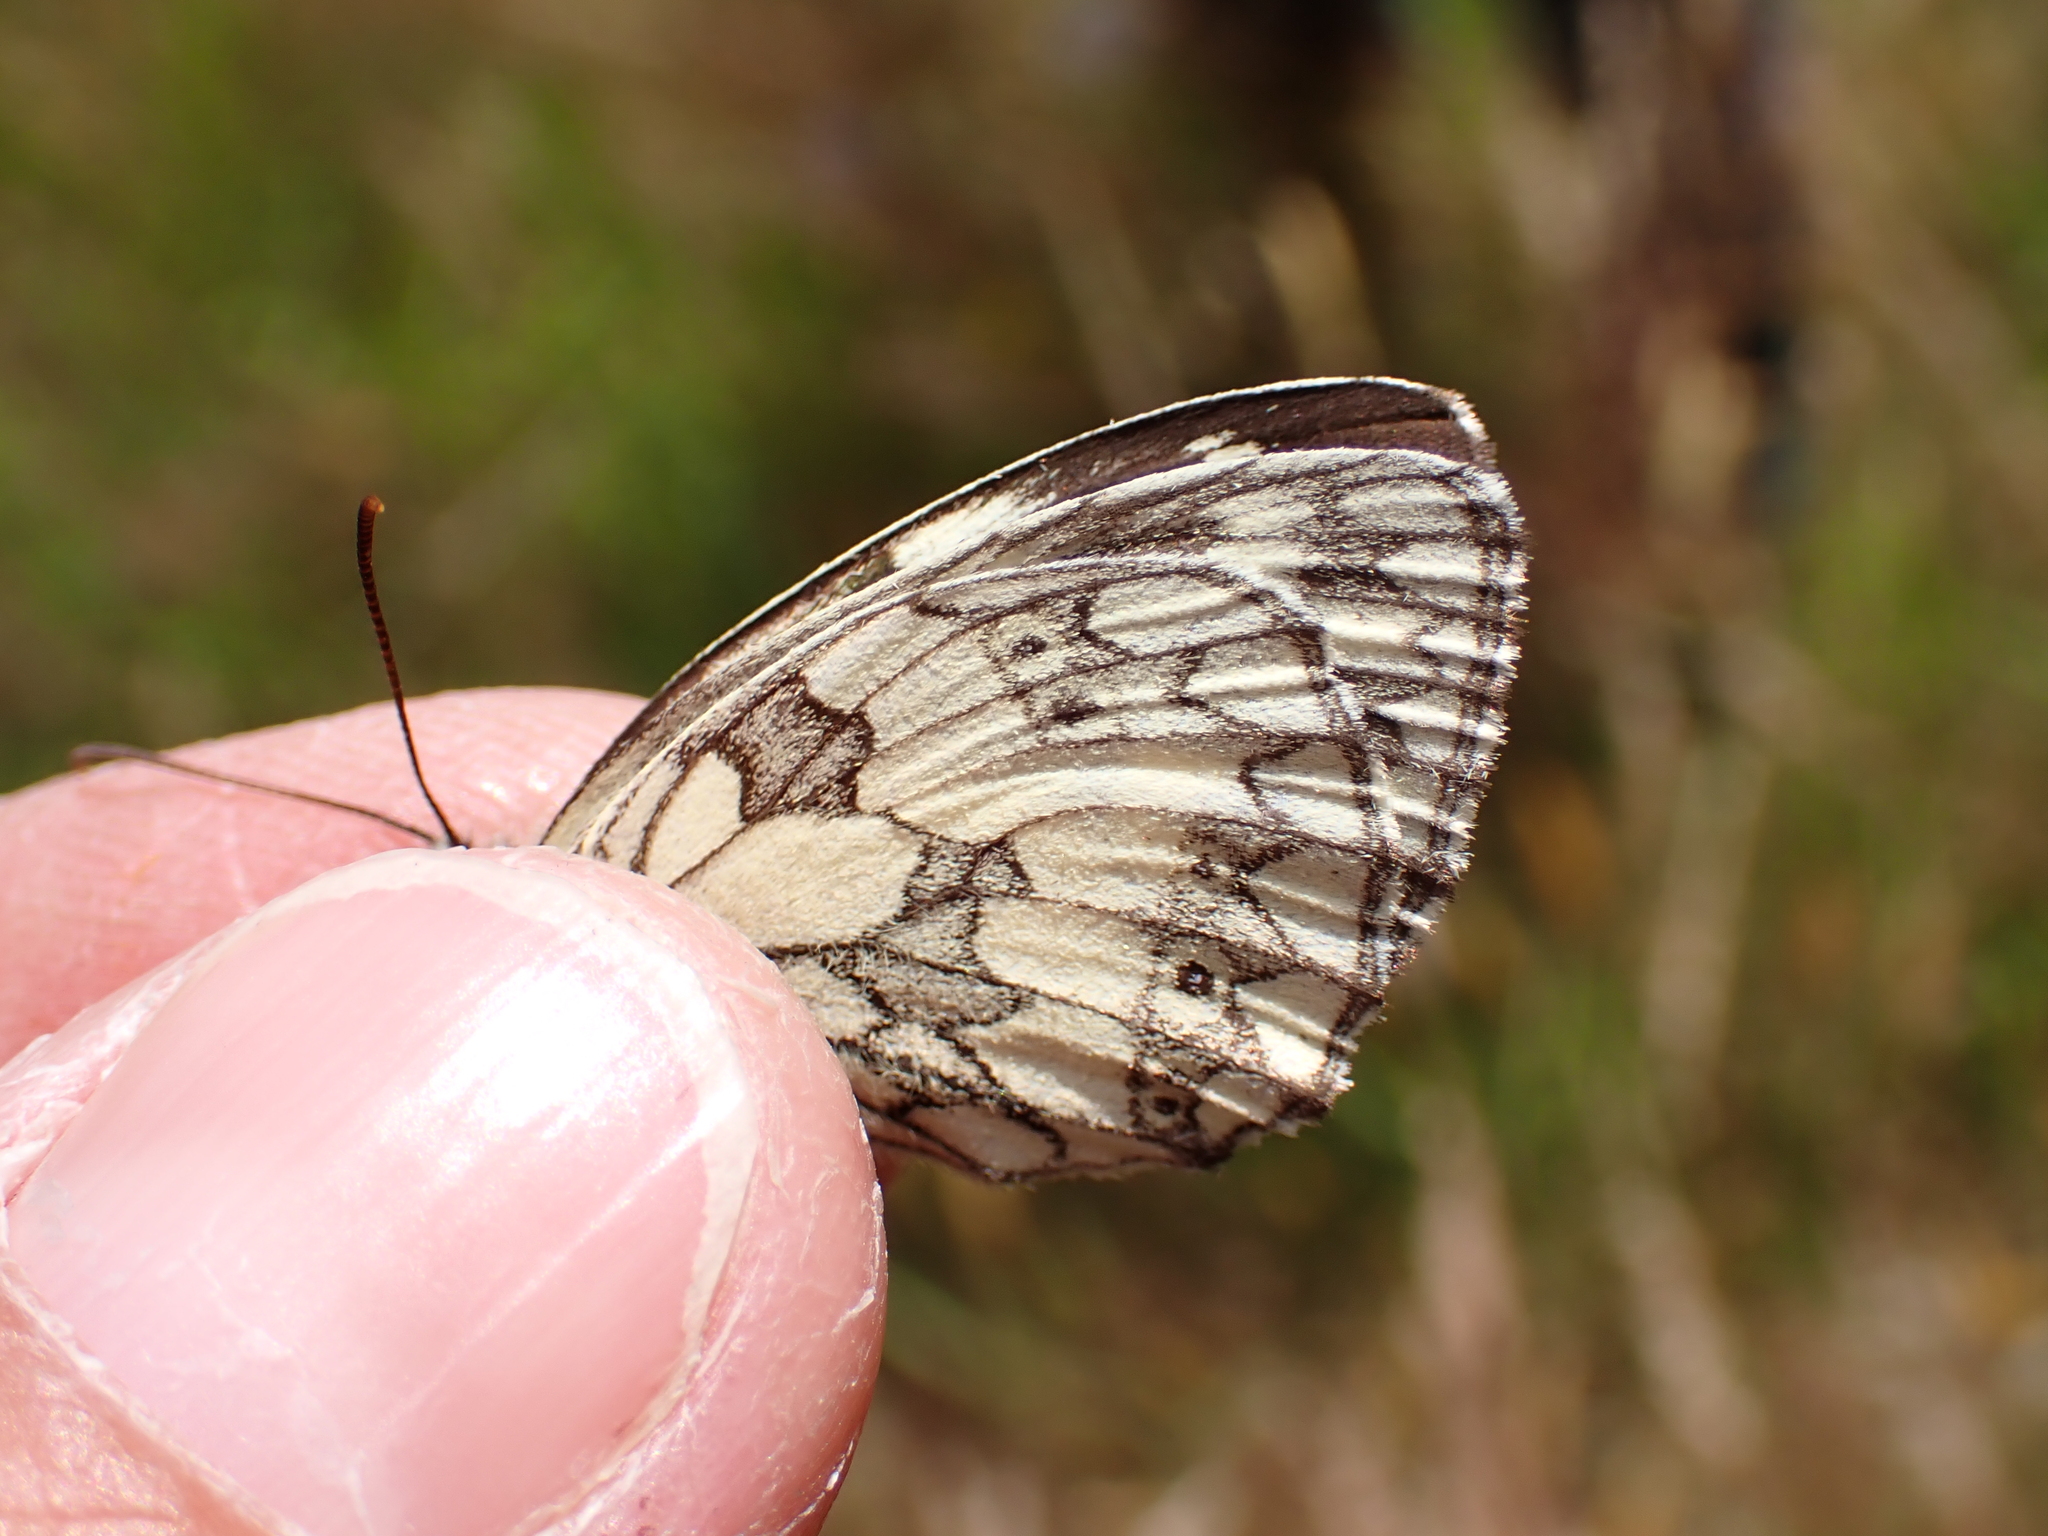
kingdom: Animalia
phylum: Arthropoda
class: Insecta
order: Lepidoptera
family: Nymphalidae
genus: Melanargia
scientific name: Melanargia galathea
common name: Marbled white
